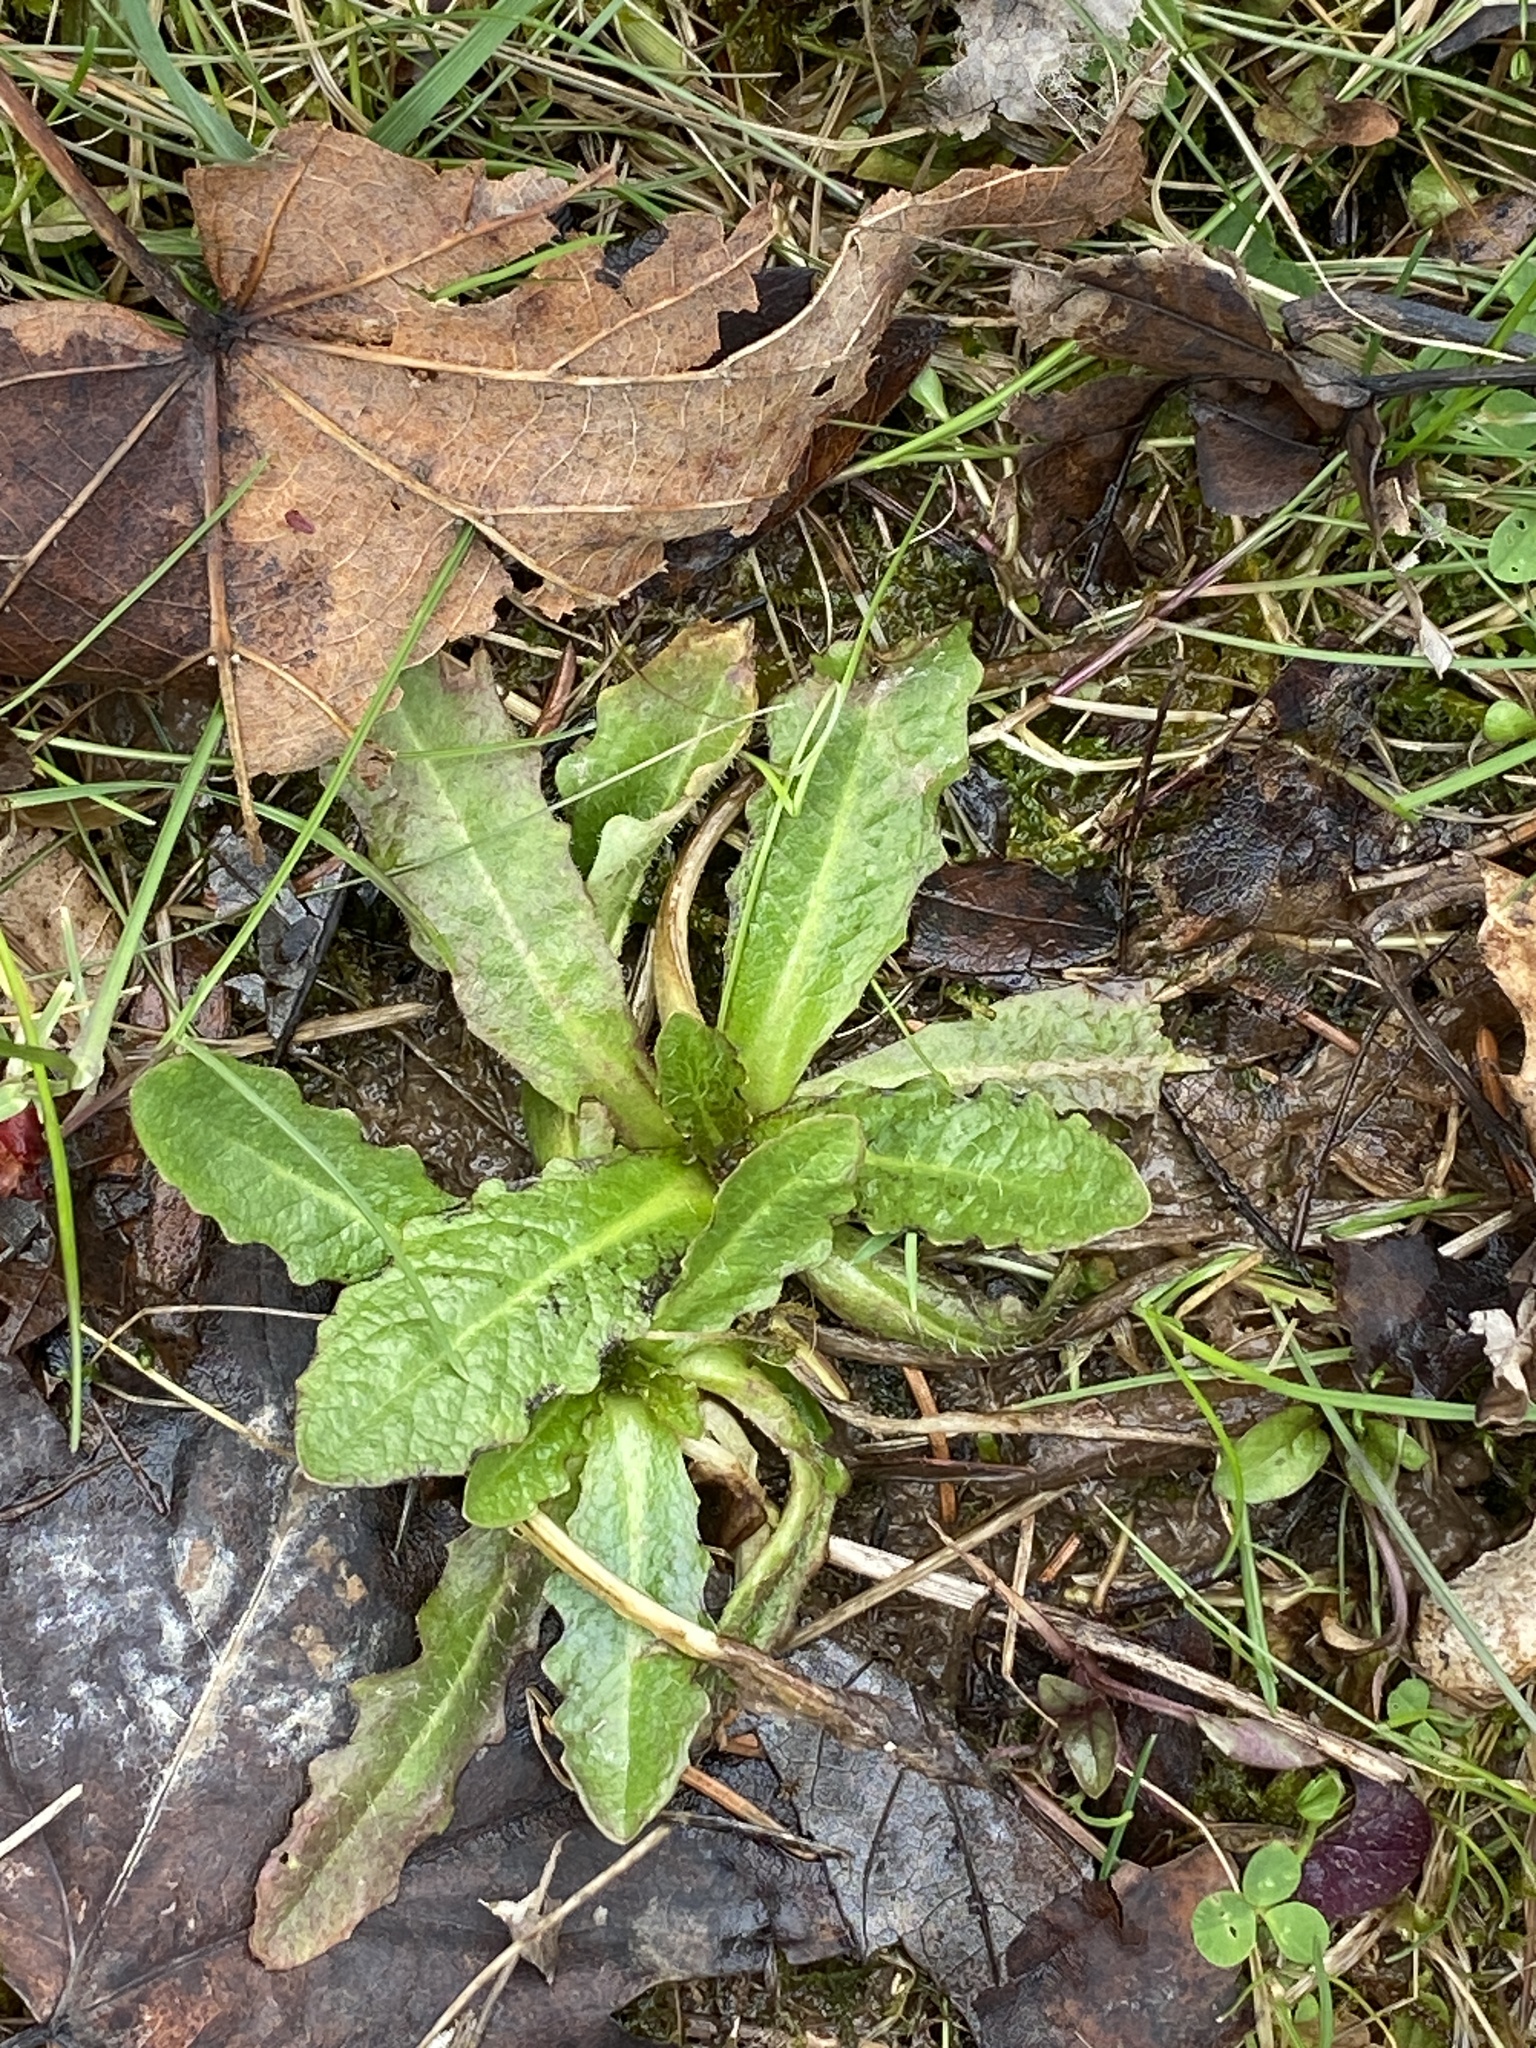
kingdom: Plantae
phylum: Tracheophyta
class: Magnoliopsida
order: Asterales
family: Asteraceae
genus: Hypochaeris
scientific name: Hypochaeris radicata
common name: Flatweed
